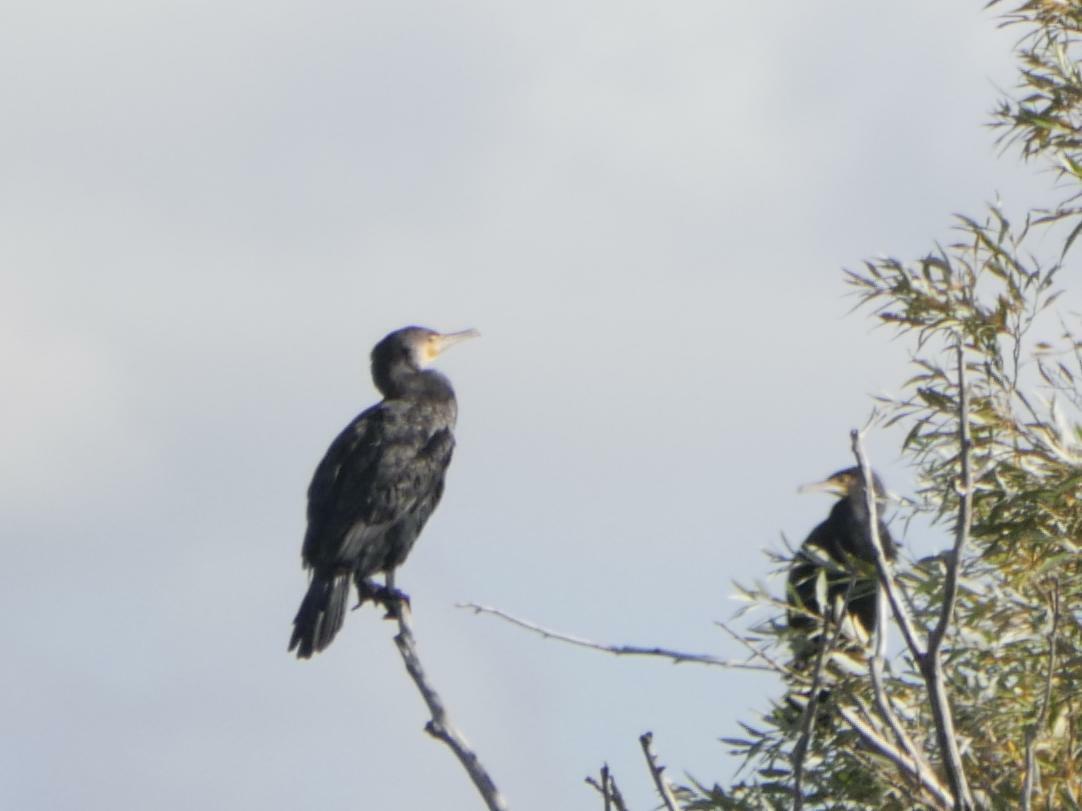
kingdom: Animalia
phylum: Chordata
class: Aves
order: Suliformes
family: Phalacrocoracidae
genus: Phalacrocorax
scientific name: Phalacrocorax carbo
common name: Great cormorant
